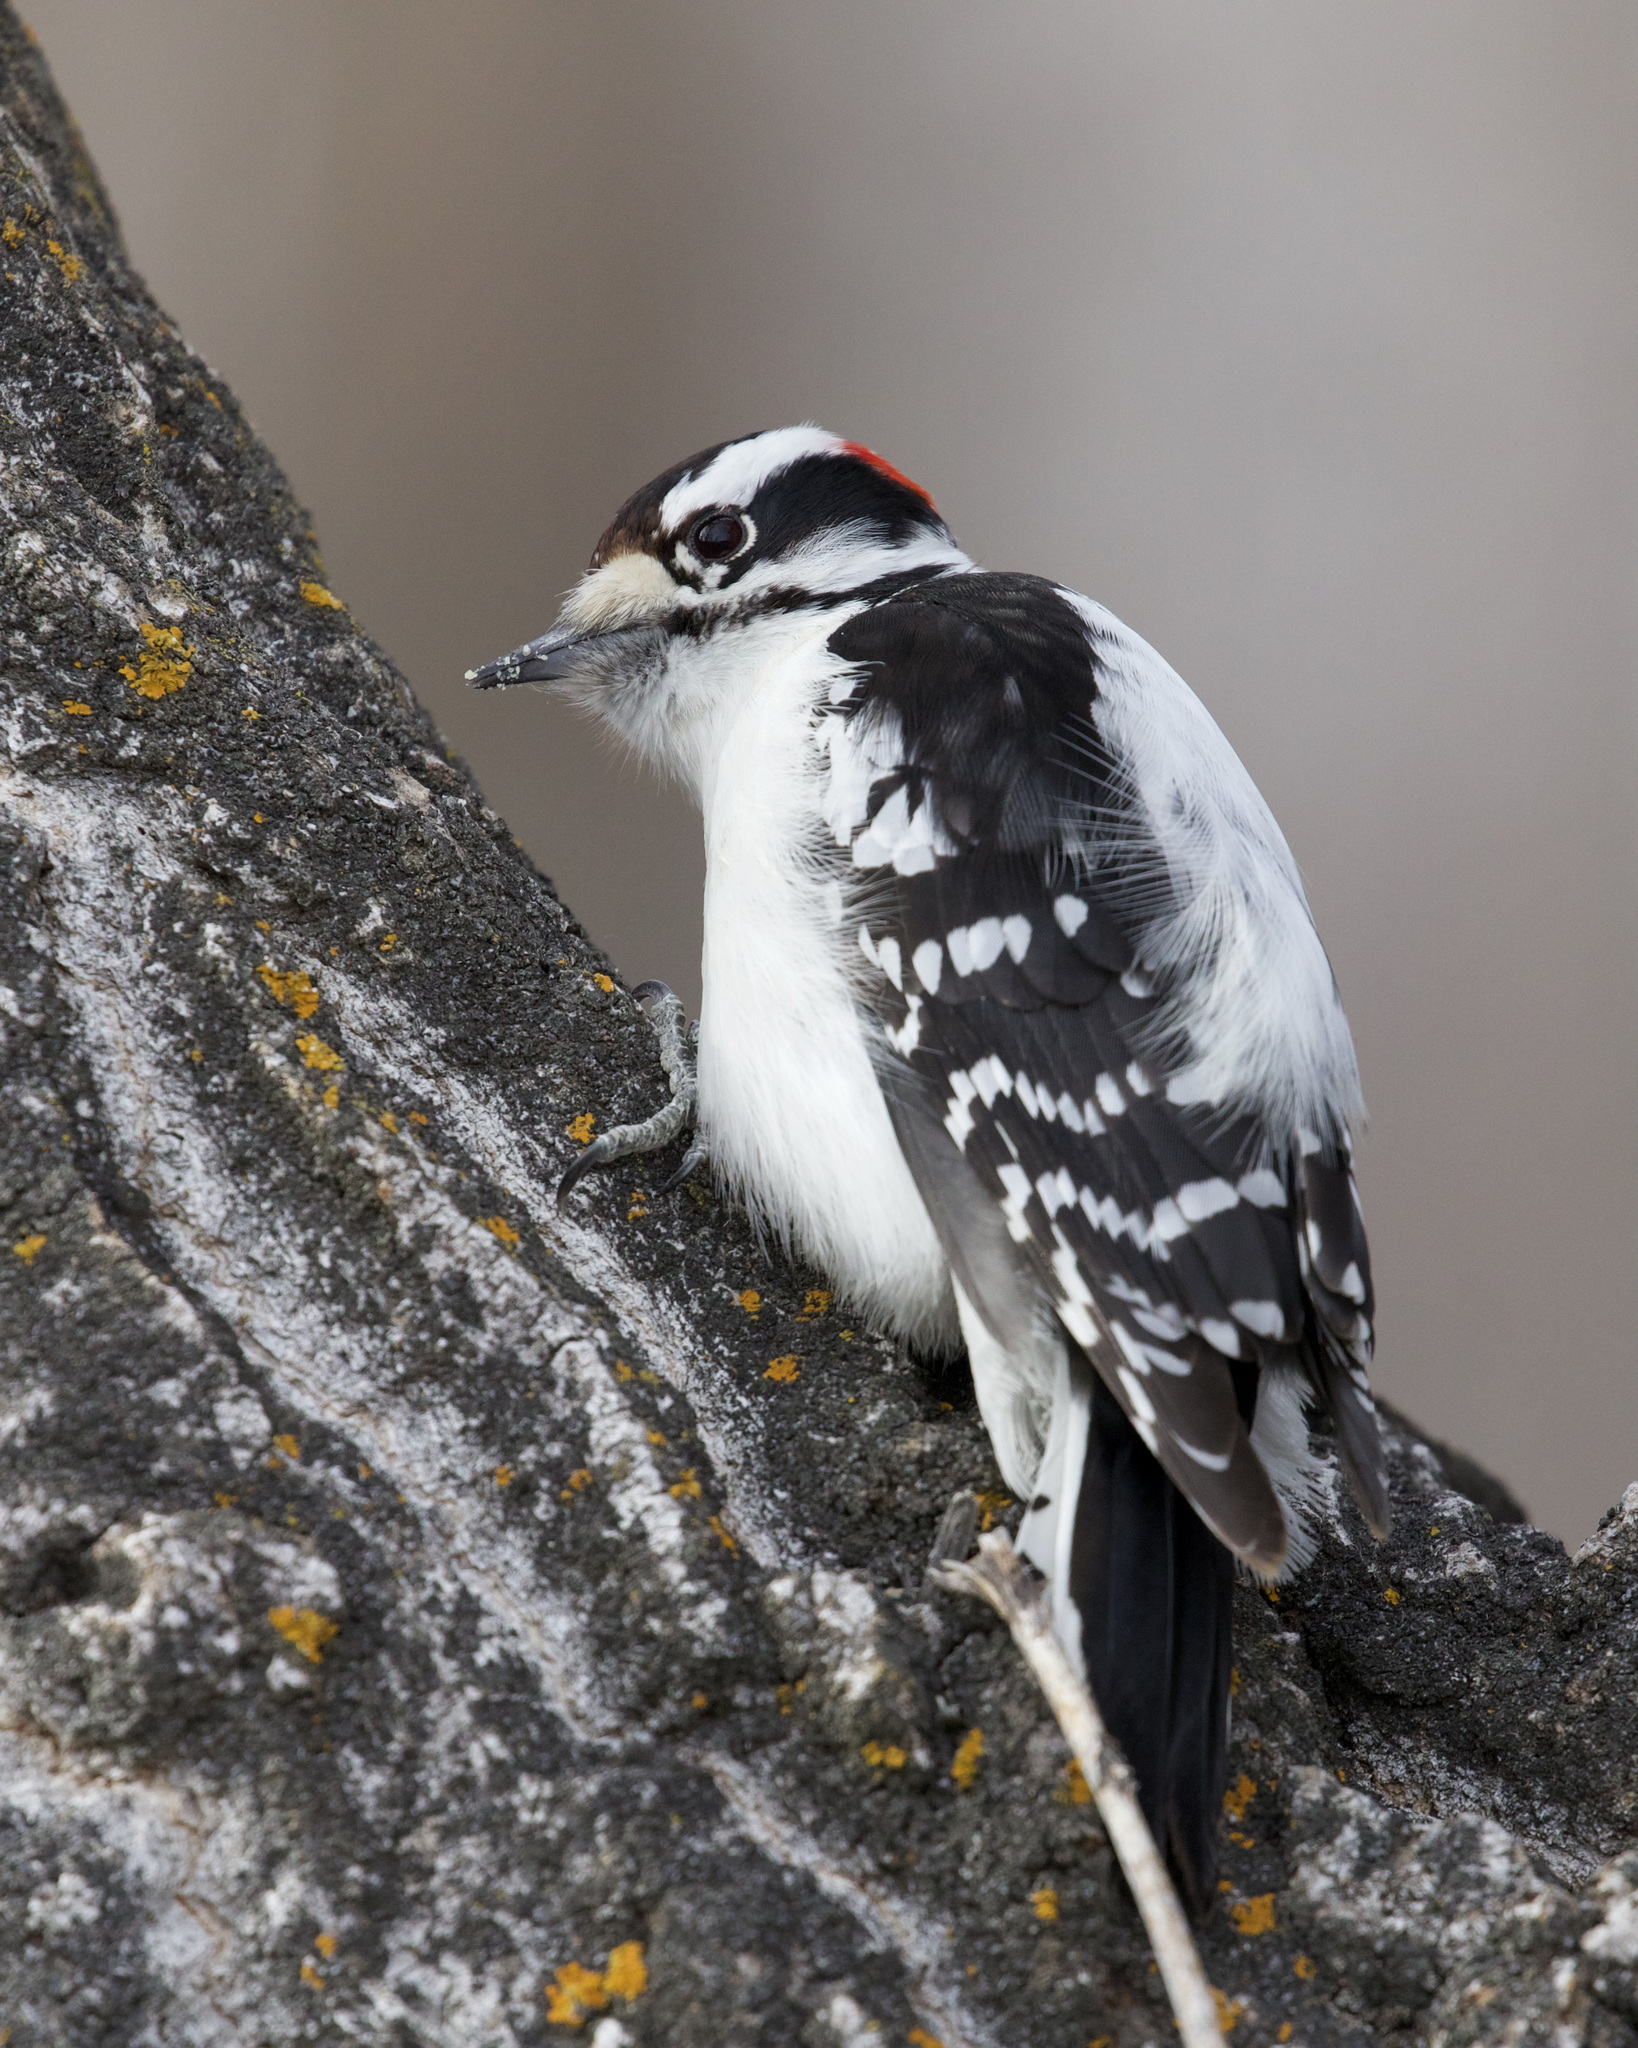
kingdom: Animalia
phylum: Chordata
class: Aves
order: Piciformes
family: Picidae
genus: Dryobates
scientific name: Dryobates pubescens
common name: Downy woodpecker
